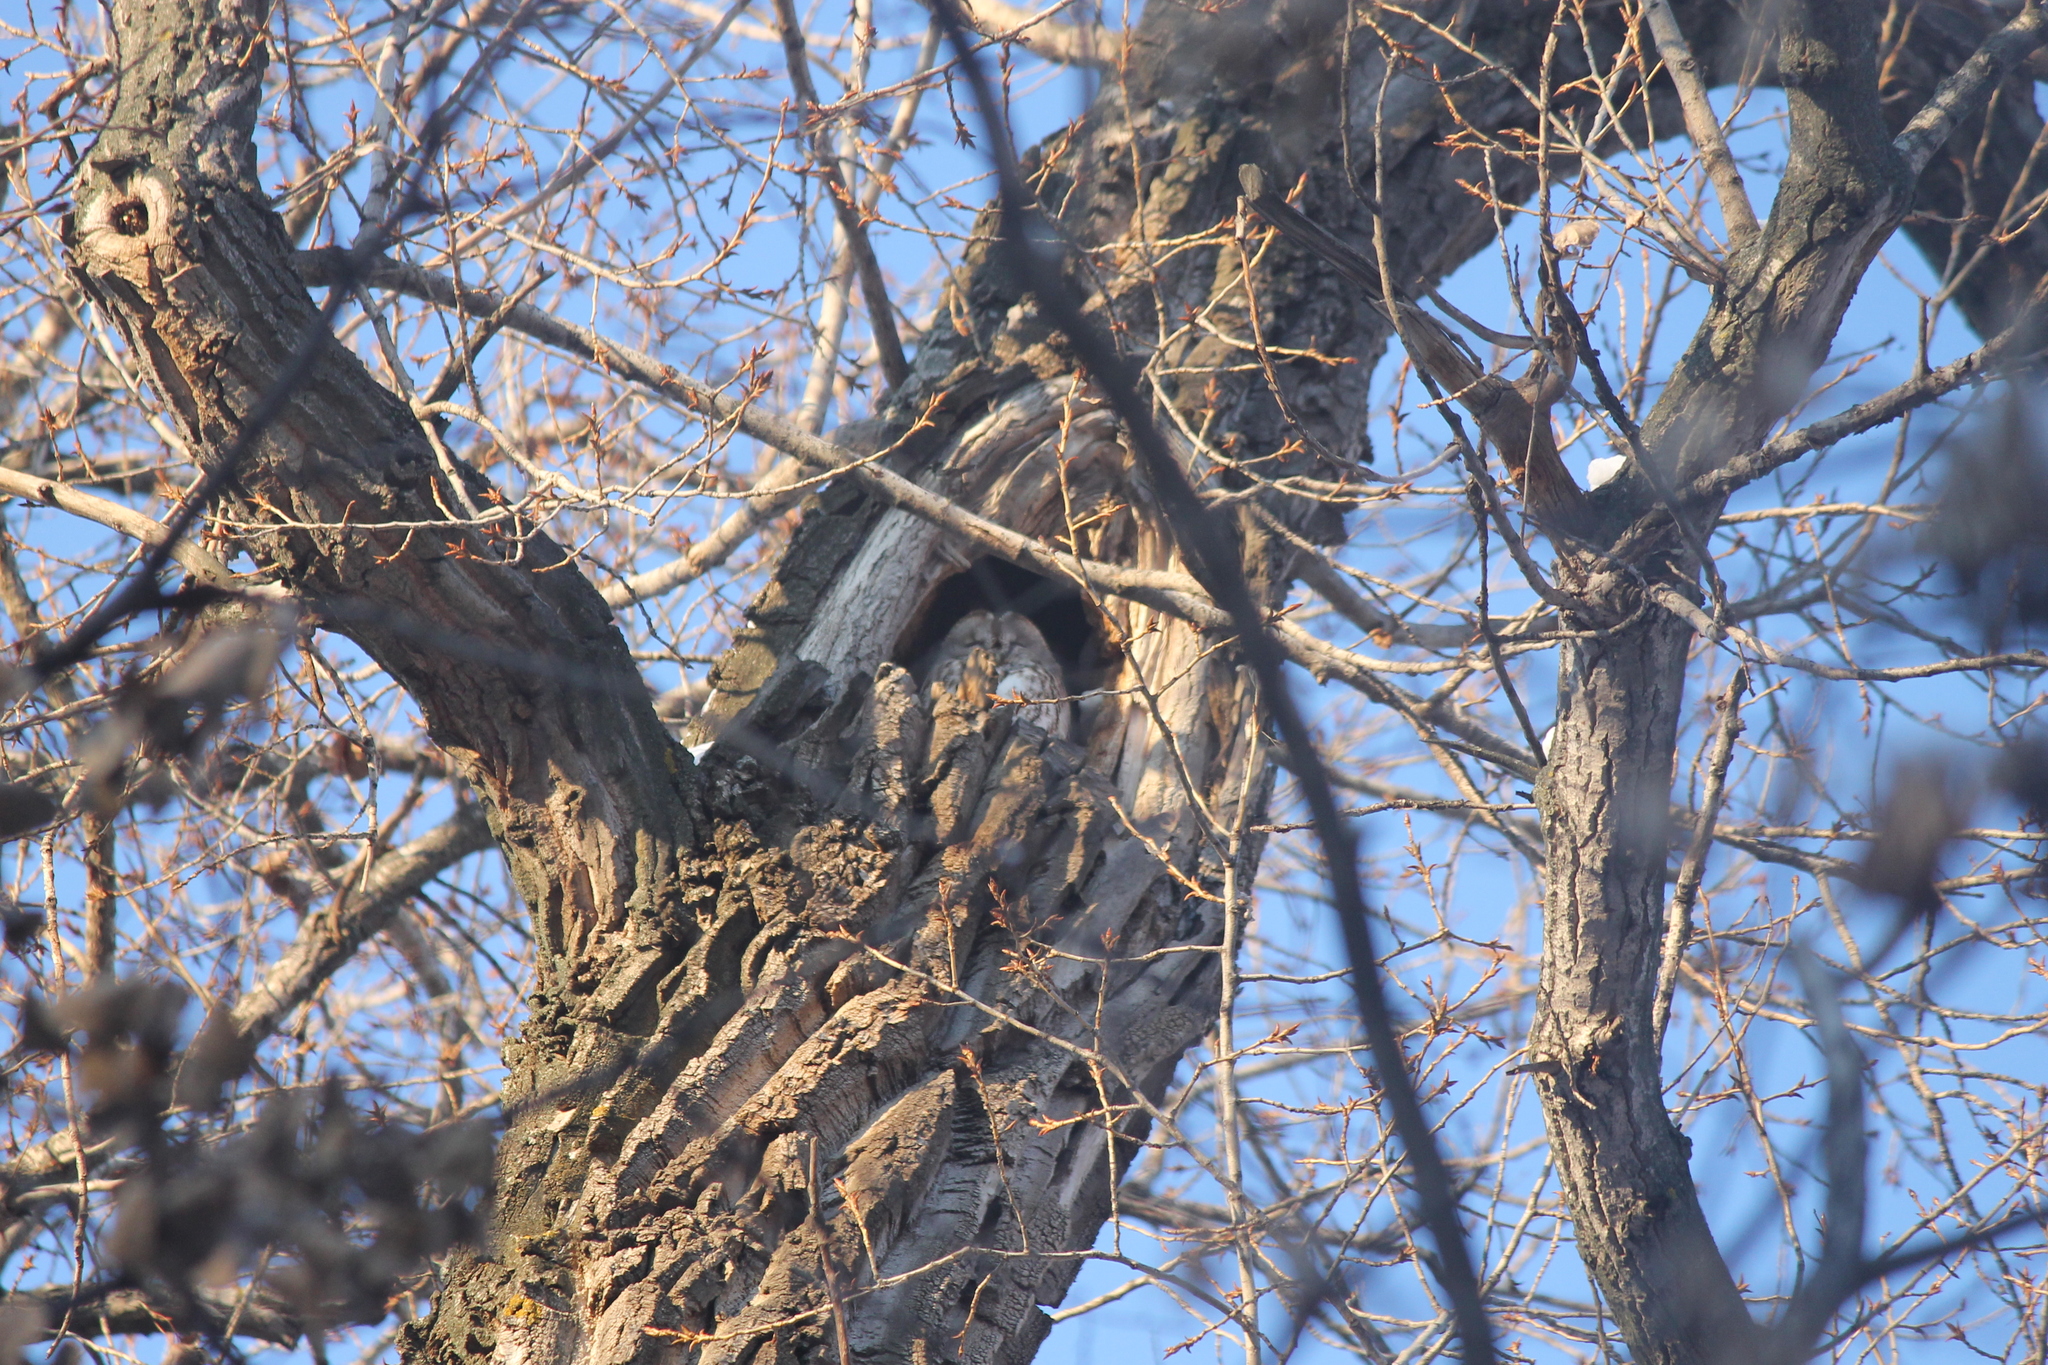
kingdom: Animalia
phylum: Chordata
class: Aves
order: Strigiformes
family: Strigidae
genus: Strix
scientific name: Strix aluco
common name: Tawny owl
